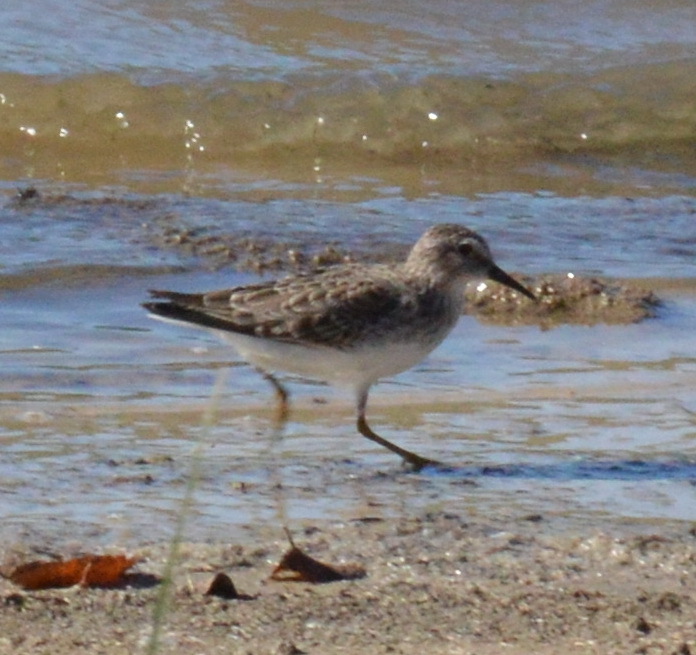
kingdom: Animalia
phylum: Chordata
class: Aves
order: Charadriiformes
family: Scolopacidae
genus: Calidris
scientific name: Calidris minutilla
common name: Least sandpiper
